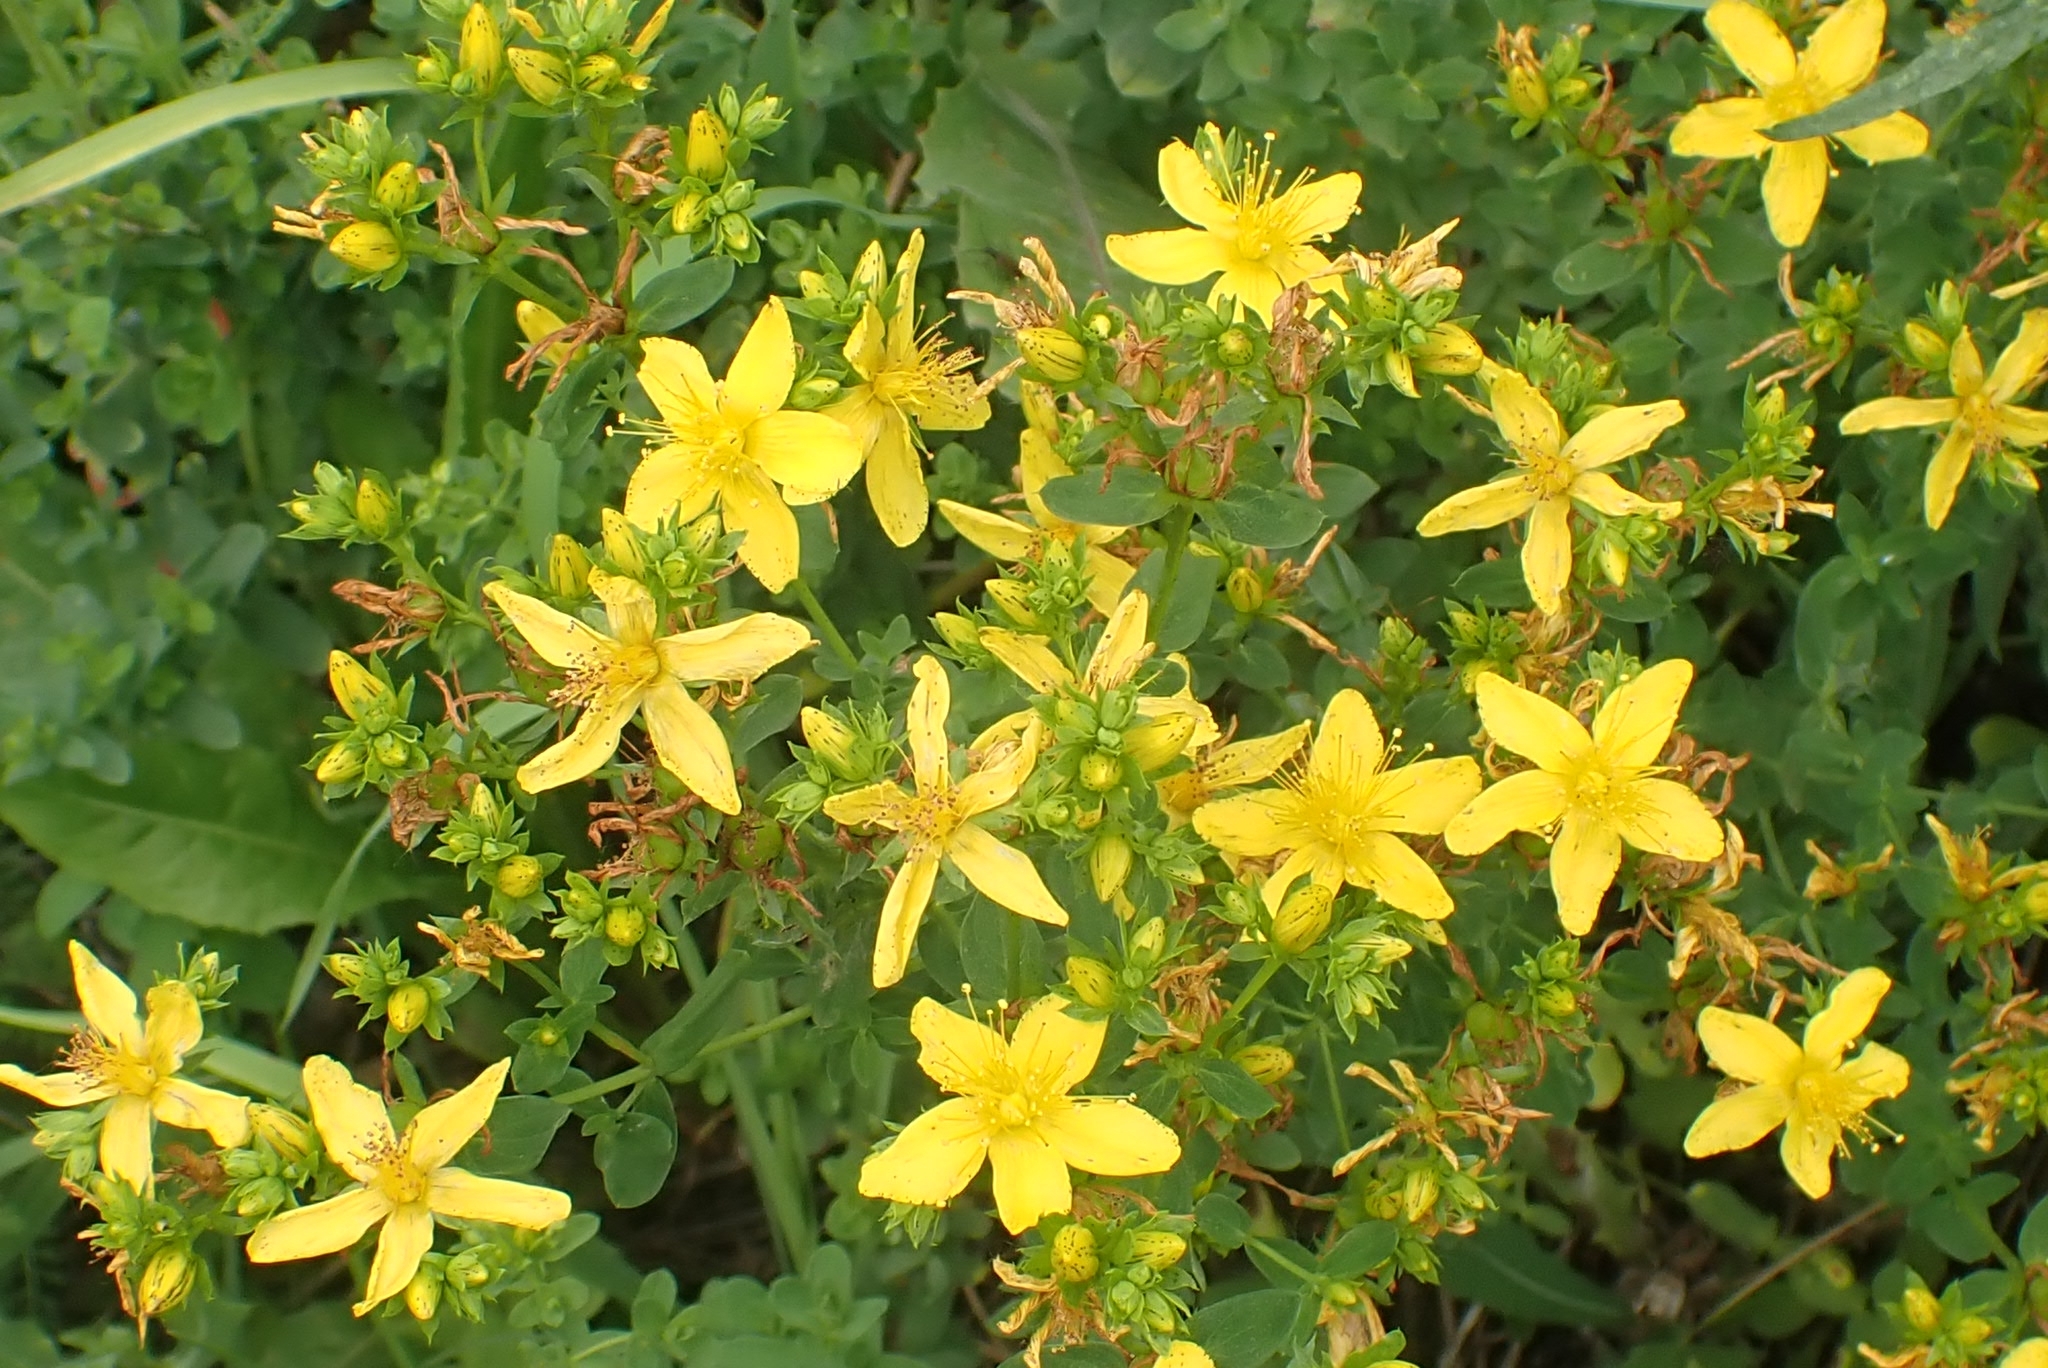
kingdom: Plantae
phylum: Tracheophyta
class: Magnoliopsida
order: Malpighiales
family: Hypericaceae
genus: Hypericum
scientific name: Hypericum perforatum
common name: Common st. johnswort
